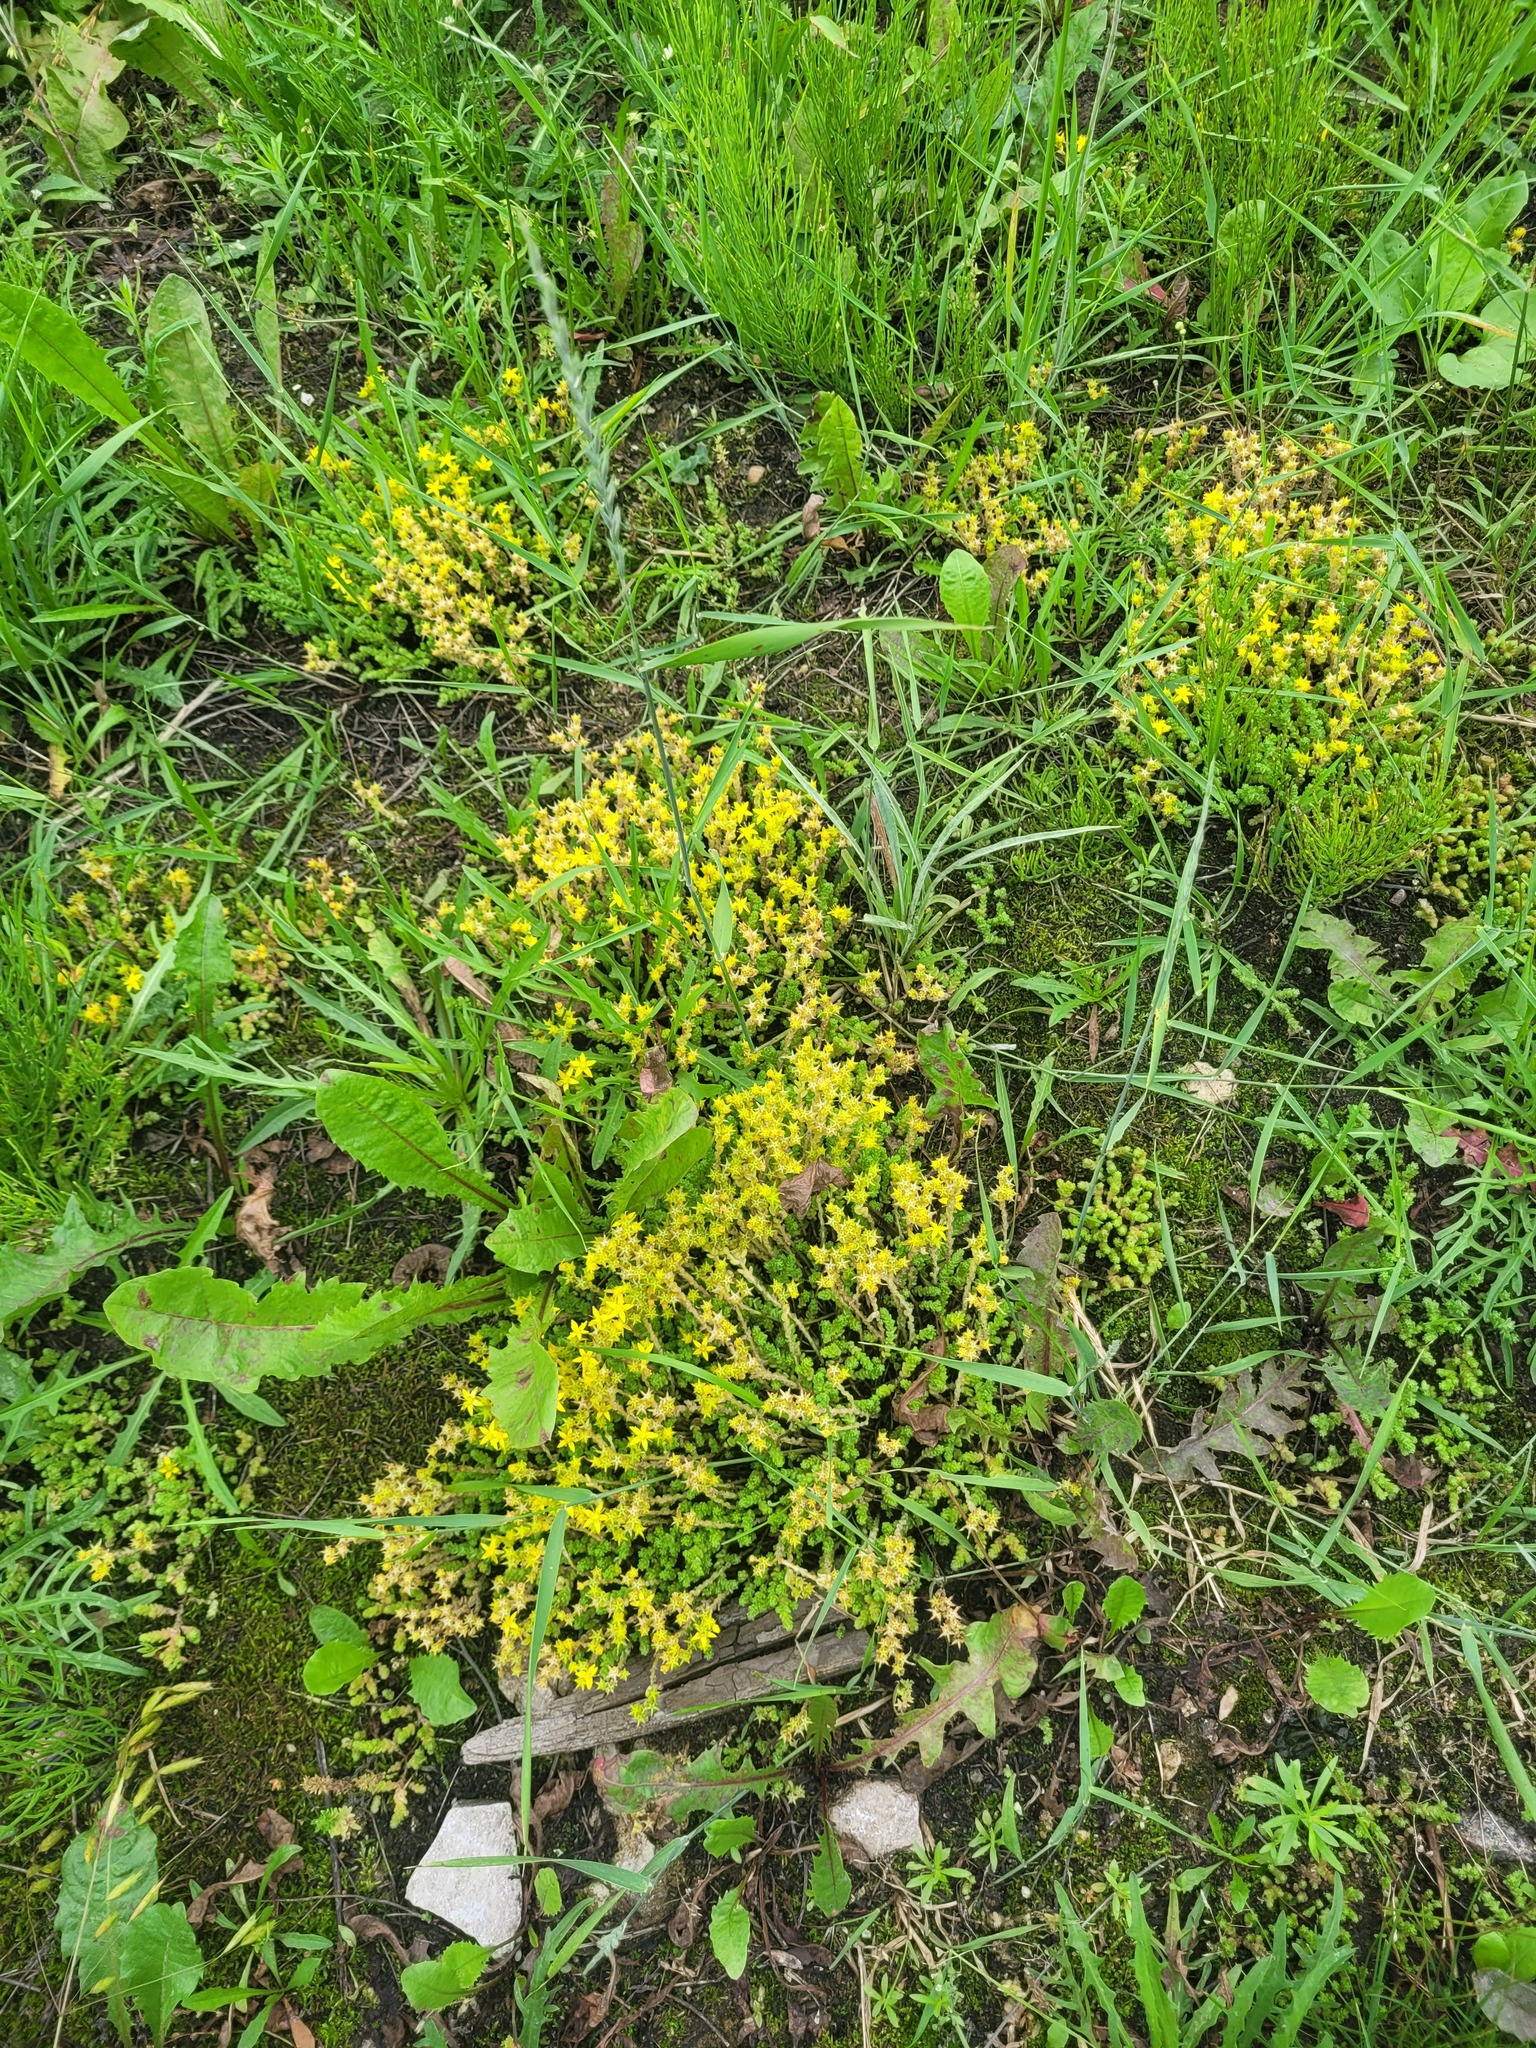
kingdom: Plantae
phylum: Tracheophyta
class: Magnoliopsida
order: Saxifragales
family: Crassulaceae
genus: Sedum
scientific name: Sedum acre
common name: Biting stonecrop
